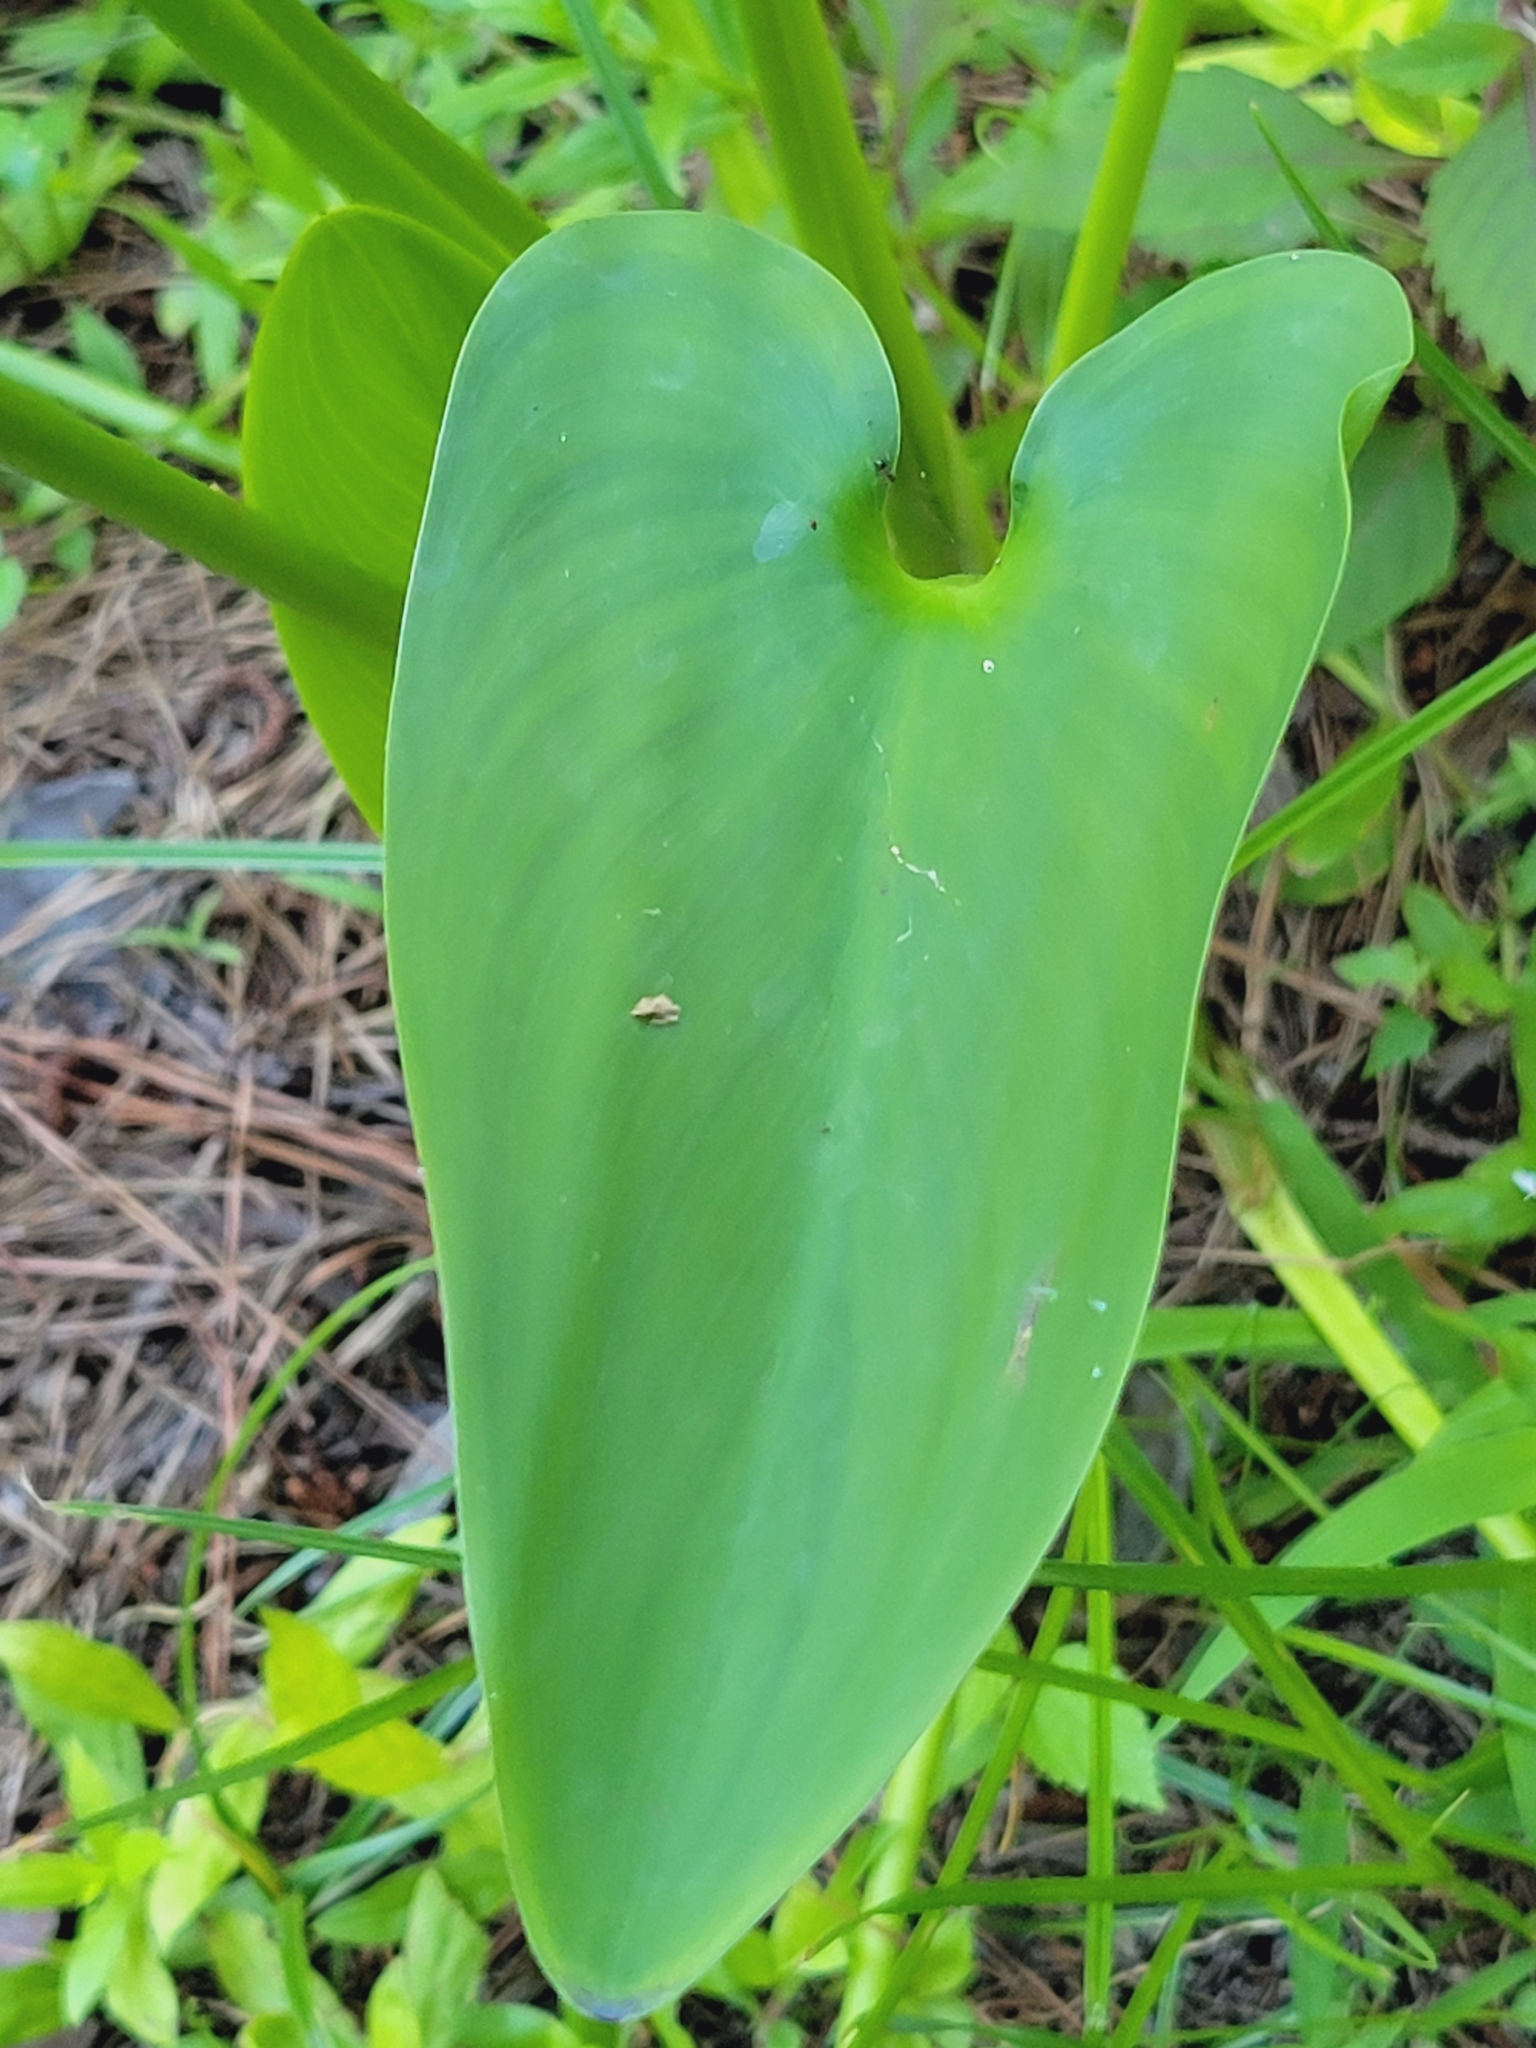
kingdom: Plantae
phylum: Tracheophyta
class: Liliopsida
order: Commelinales
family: Pontederiaceae
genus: Pontederia
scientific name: Pontederia cordata
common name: Pickerelweed
